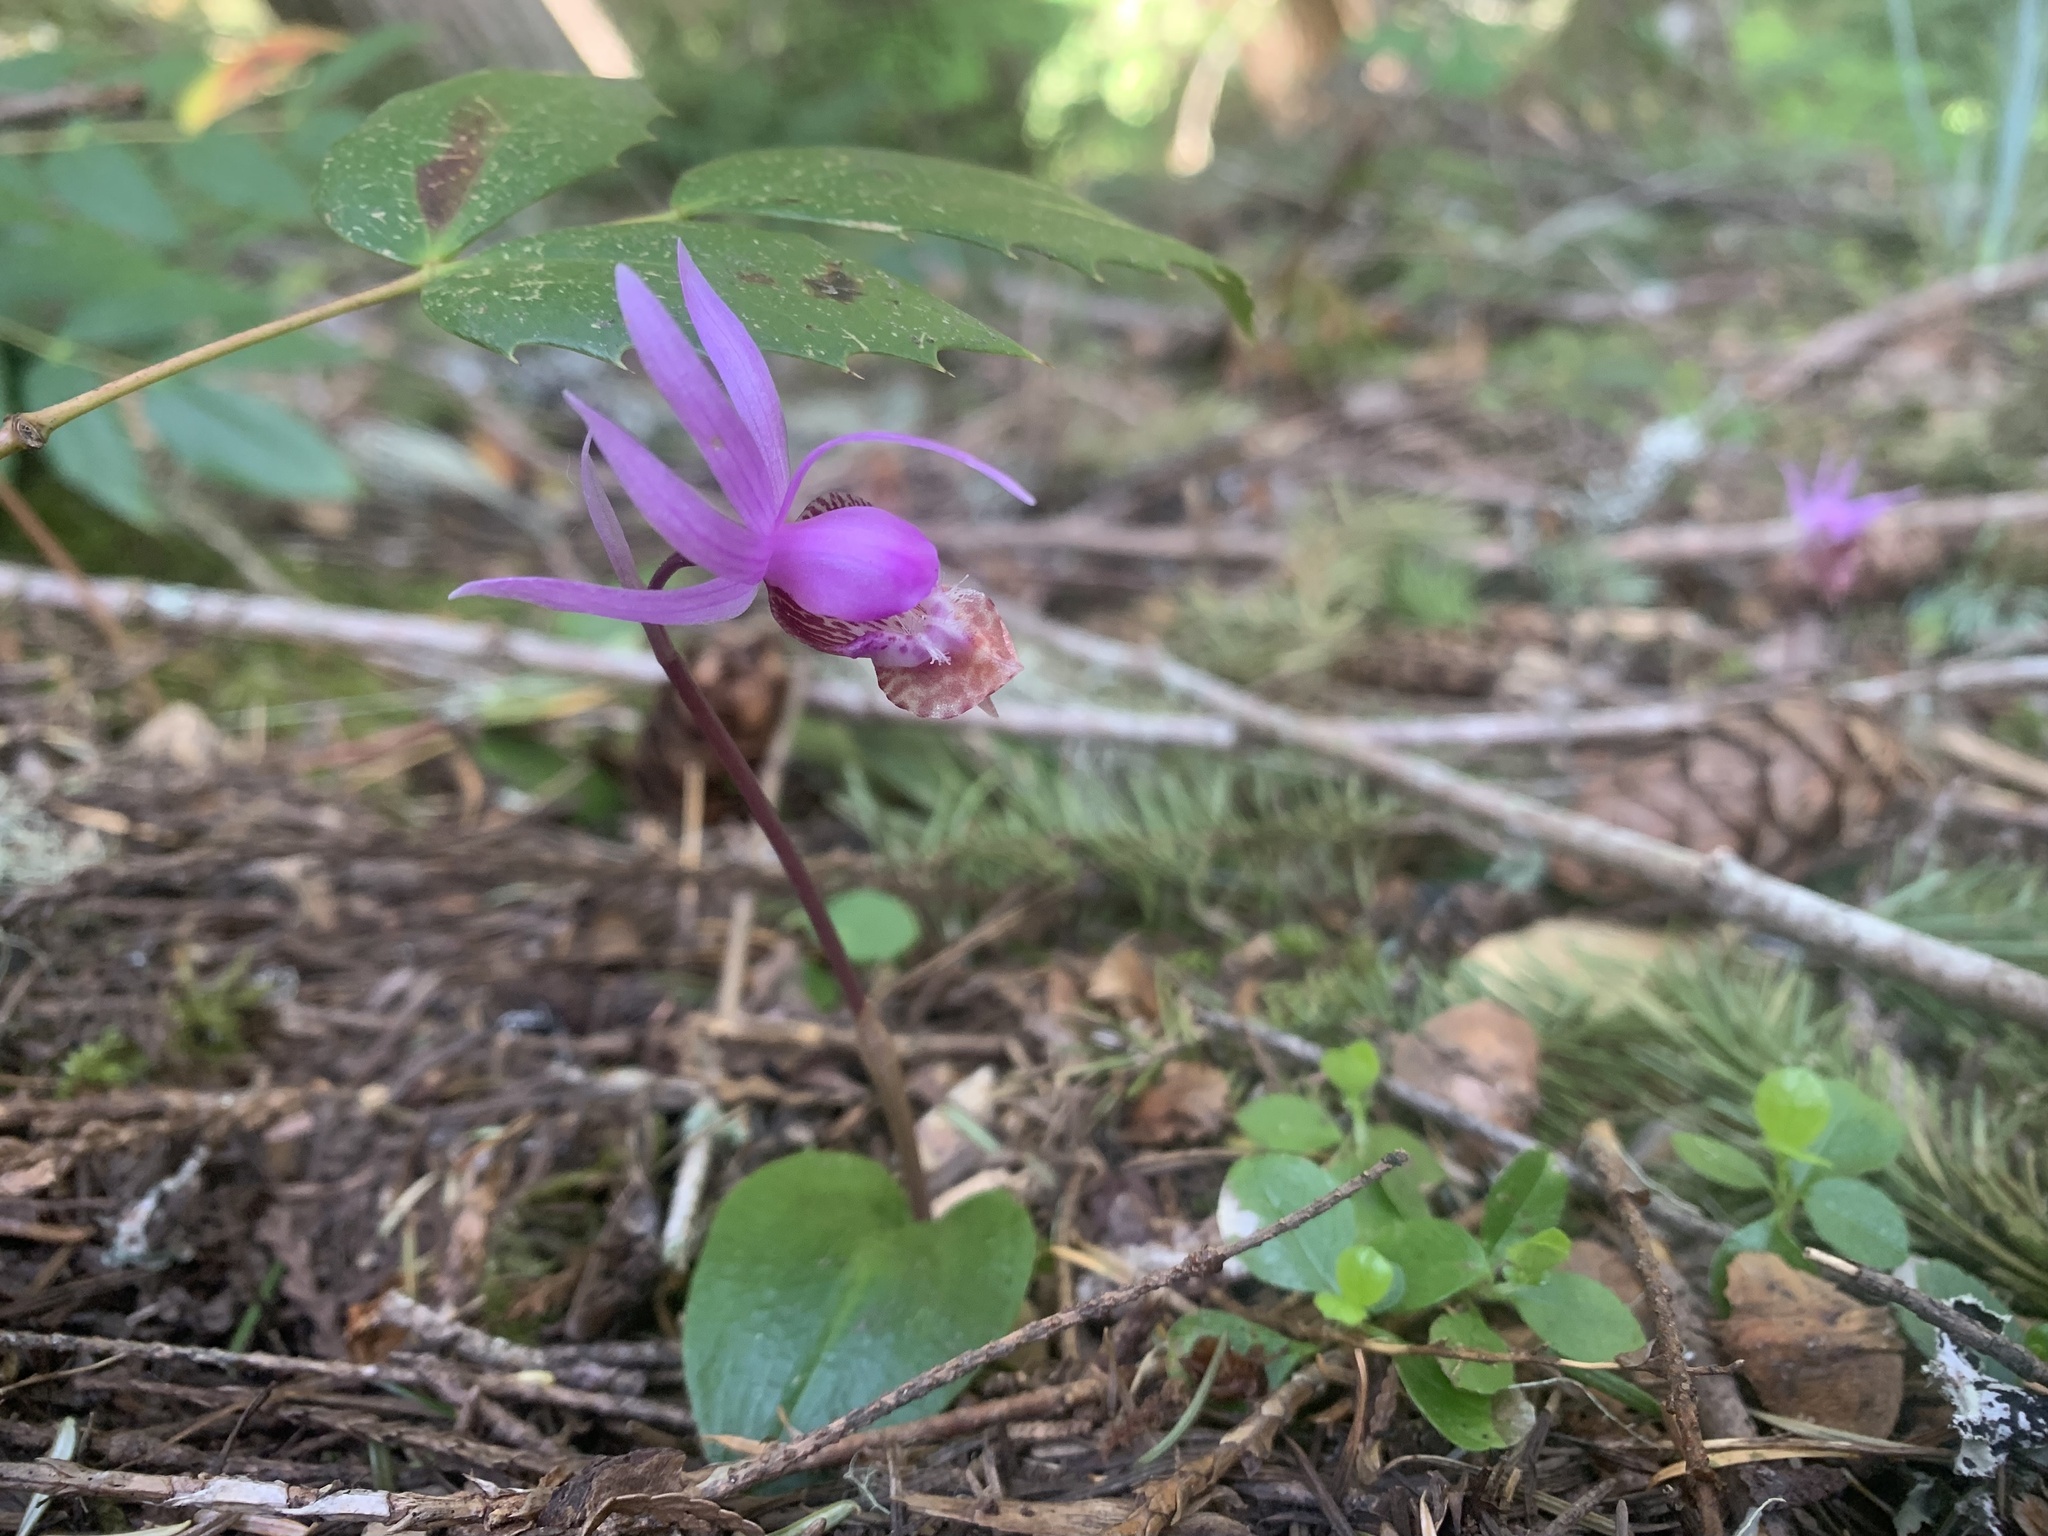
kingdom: Plantae
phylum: Tracheophyta
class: Liliopsida
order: Asparagales
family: Orchidaceae
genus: Calypso
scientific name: Calypso bulbosa
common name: Calypso
